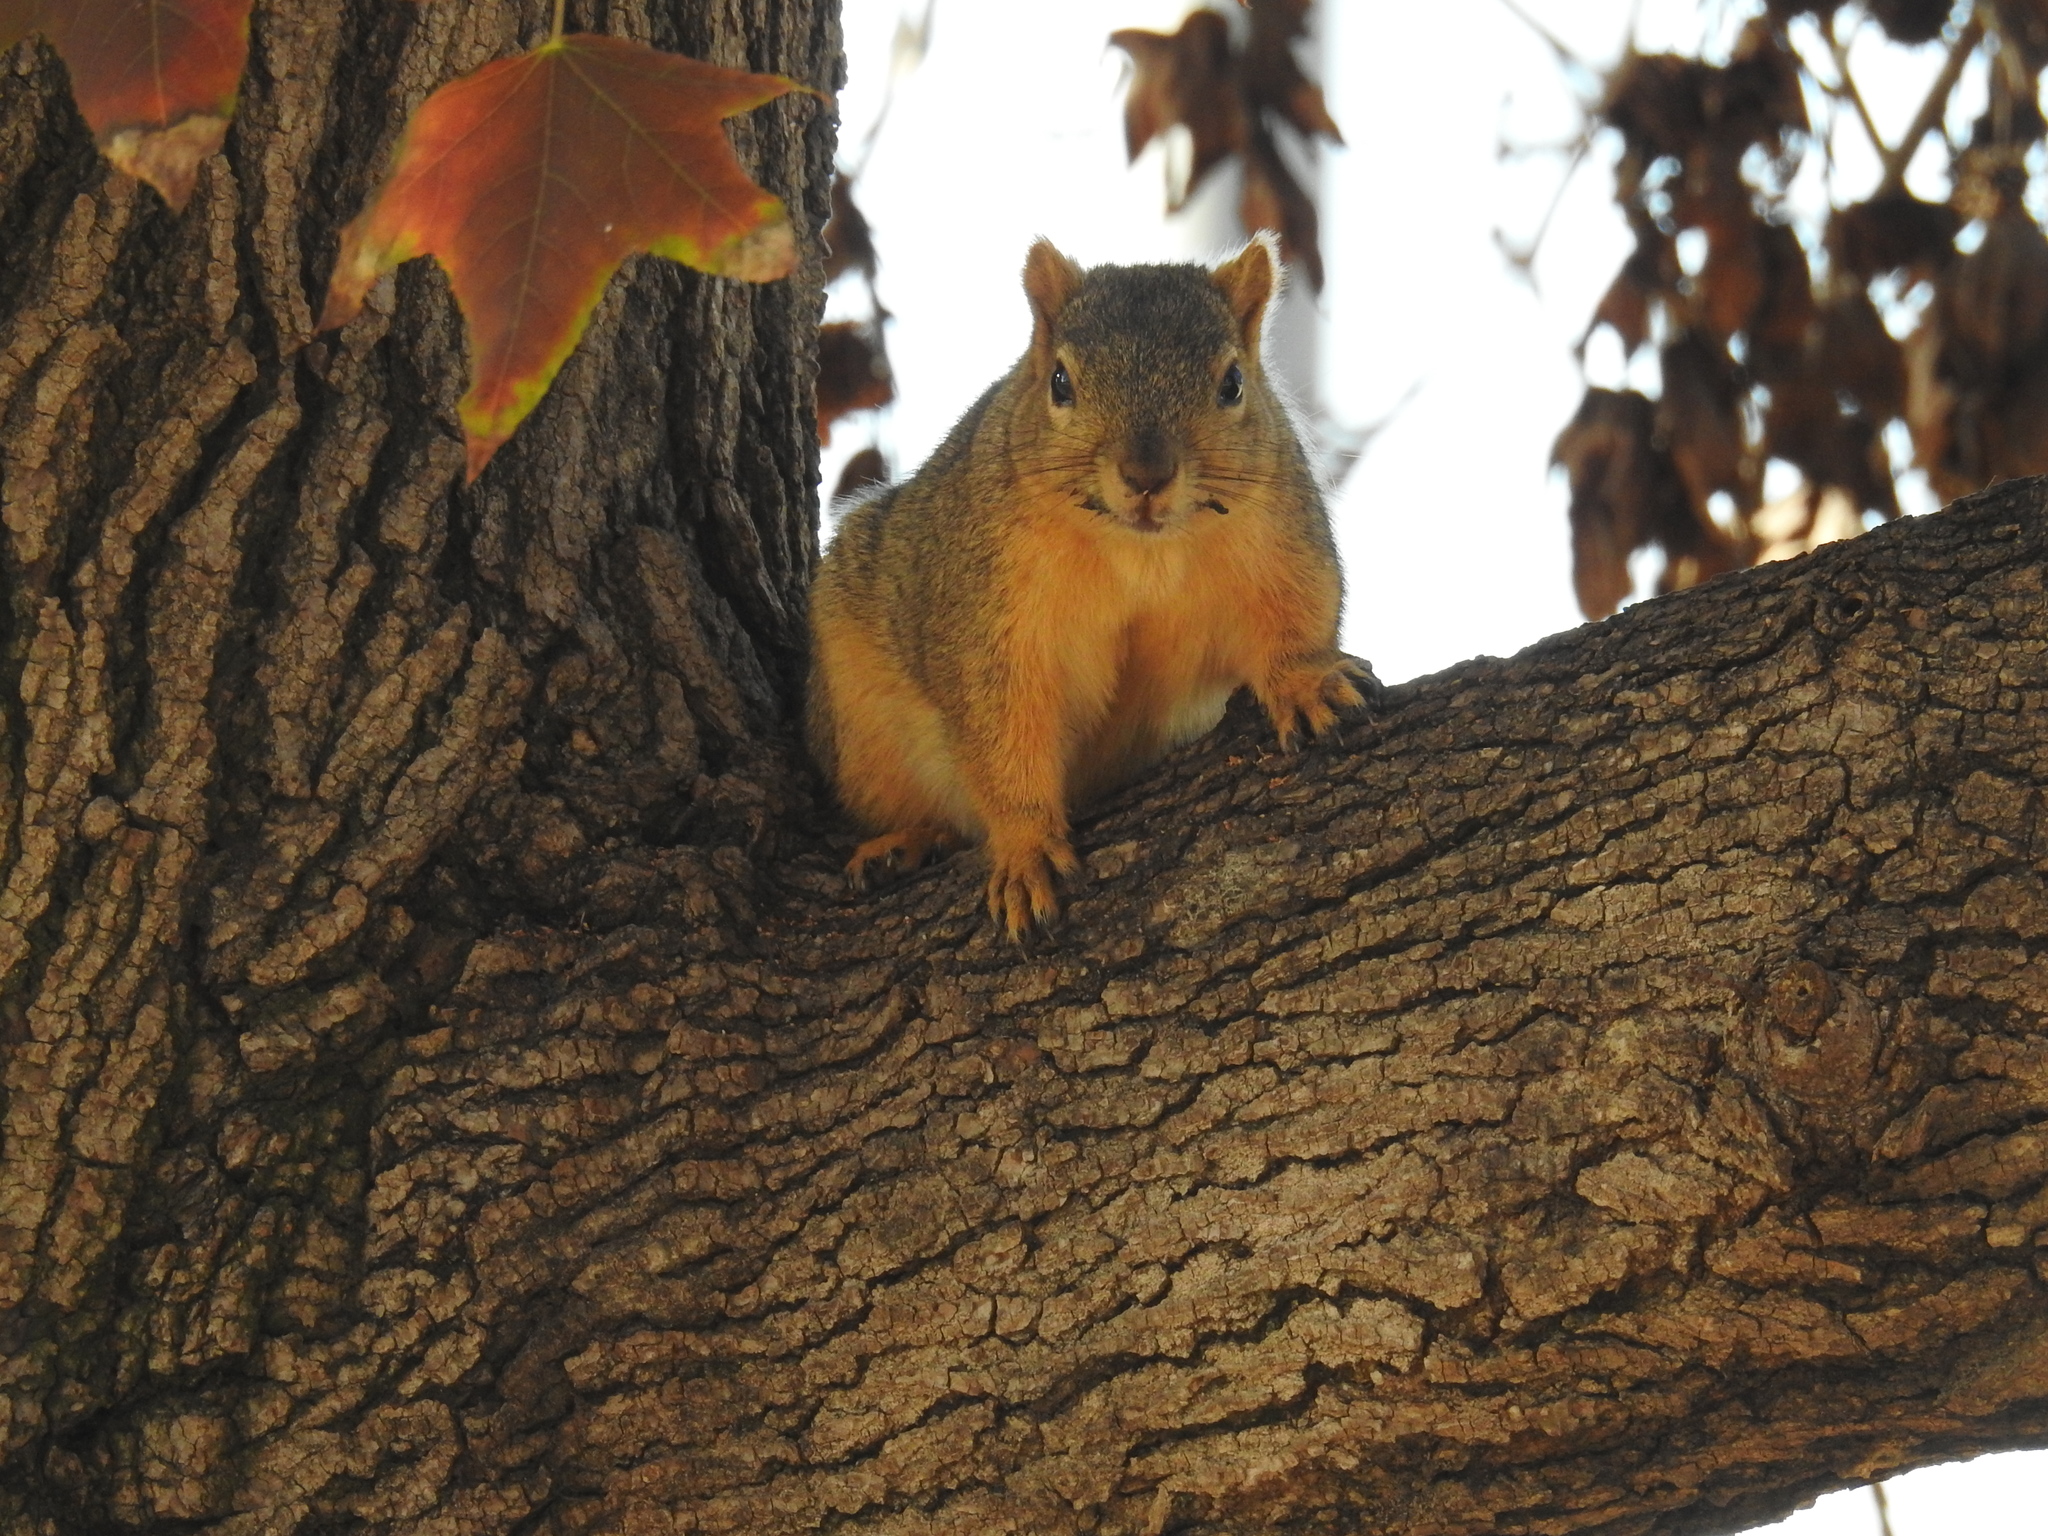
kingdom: Animalia
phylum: Chordata
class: Mammalia
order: Rodentia
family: Sciuridae
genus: Sciurus
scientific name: Sciurus niger
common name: Fox squirrel
